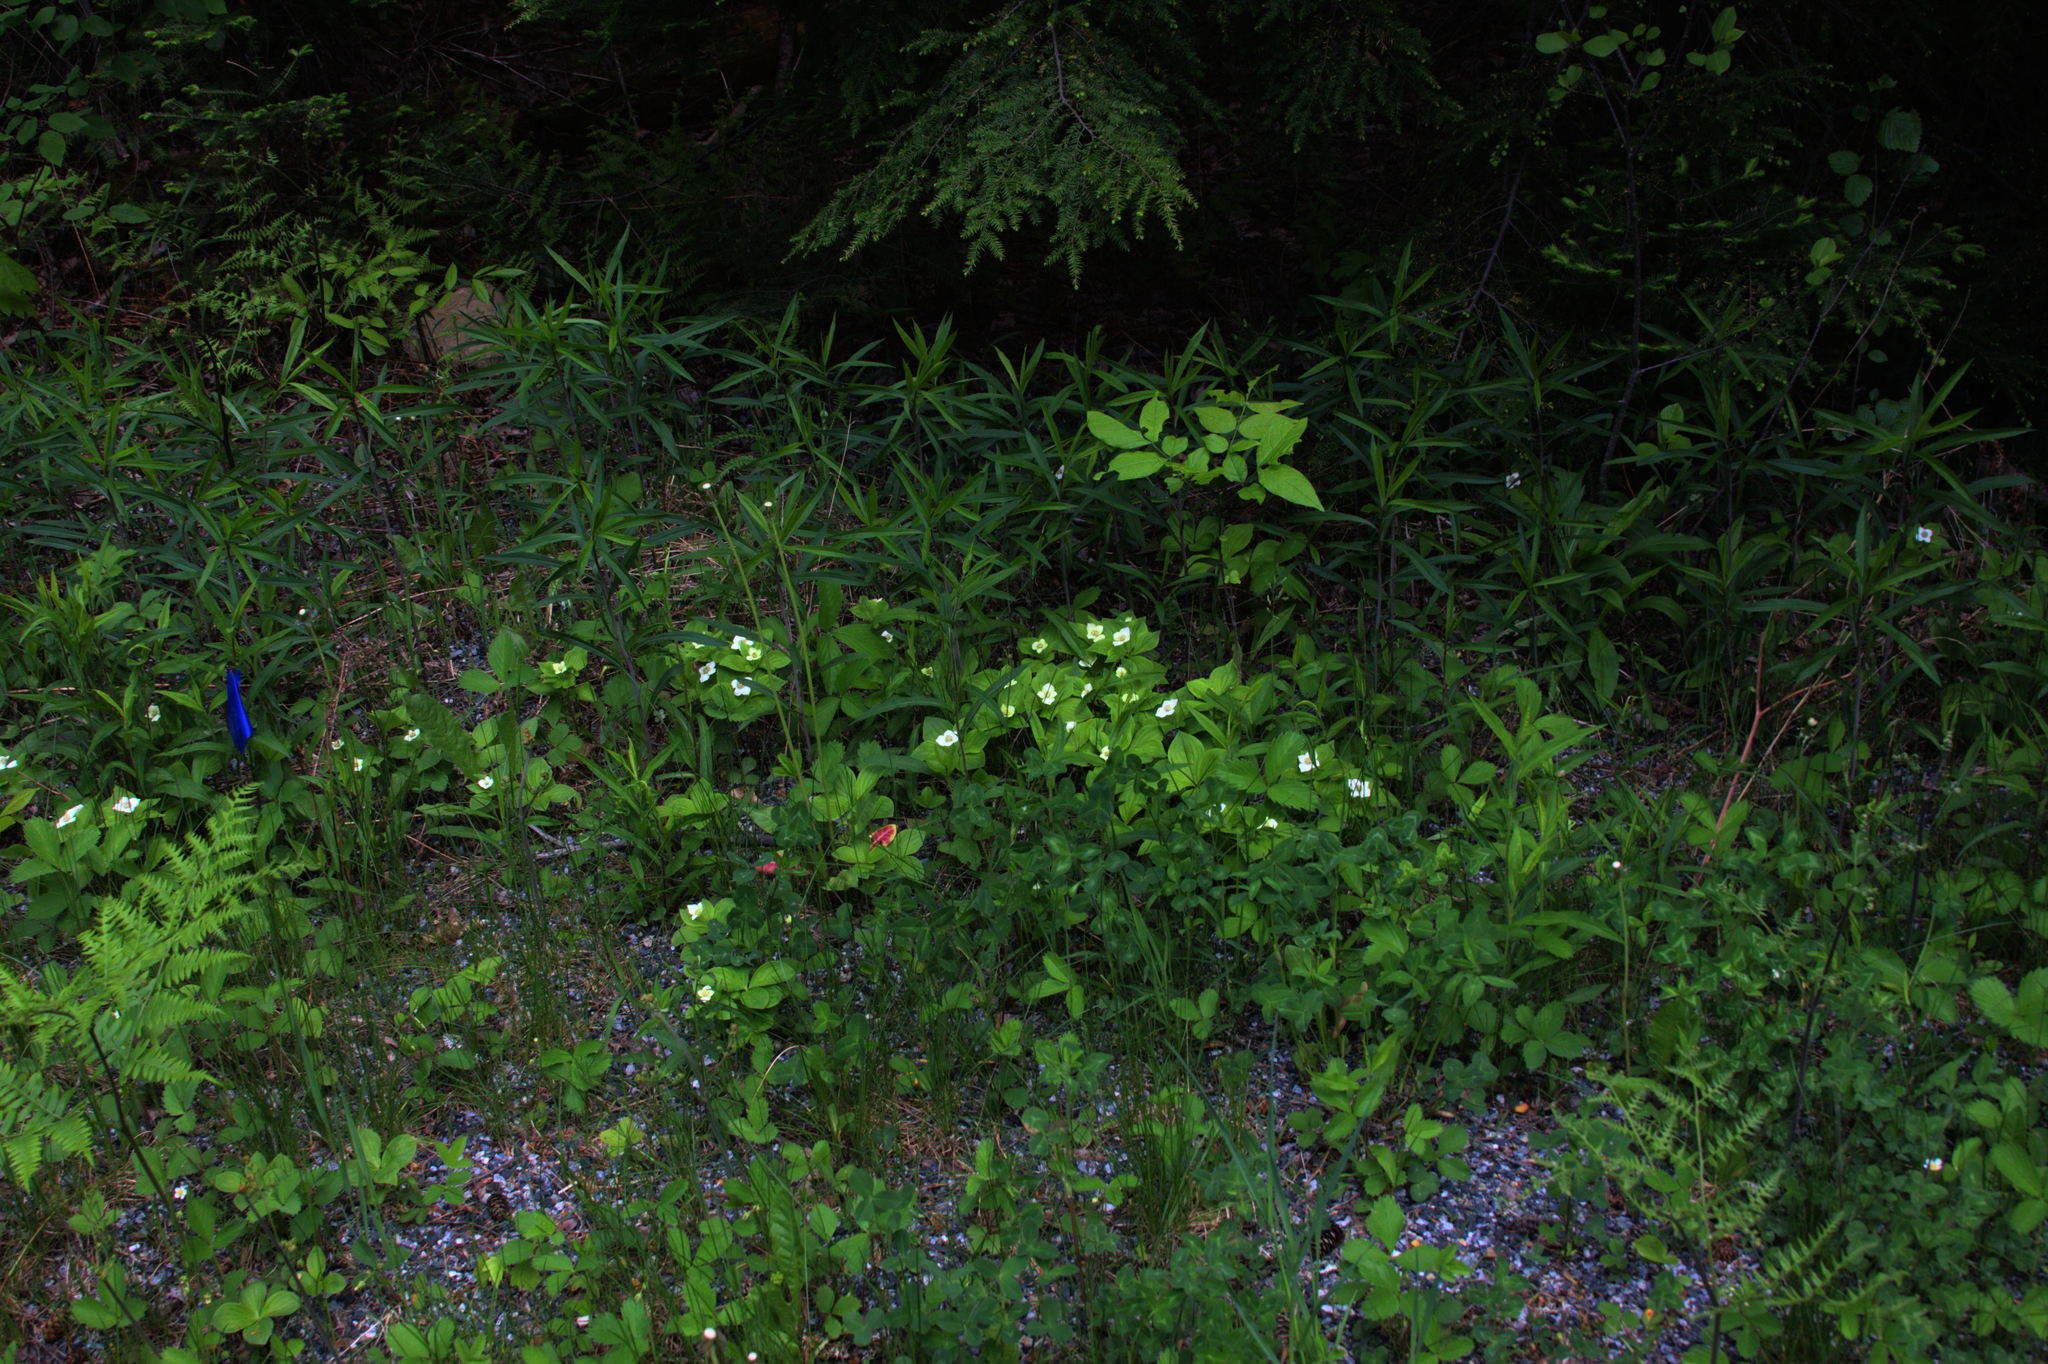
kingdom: Plantae
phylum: Tracheophyta
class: Magnoliopsida
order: Cornales
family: Cornaceae
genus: Cornus
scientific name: Cornus canadensis
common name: Creeping dogwood
